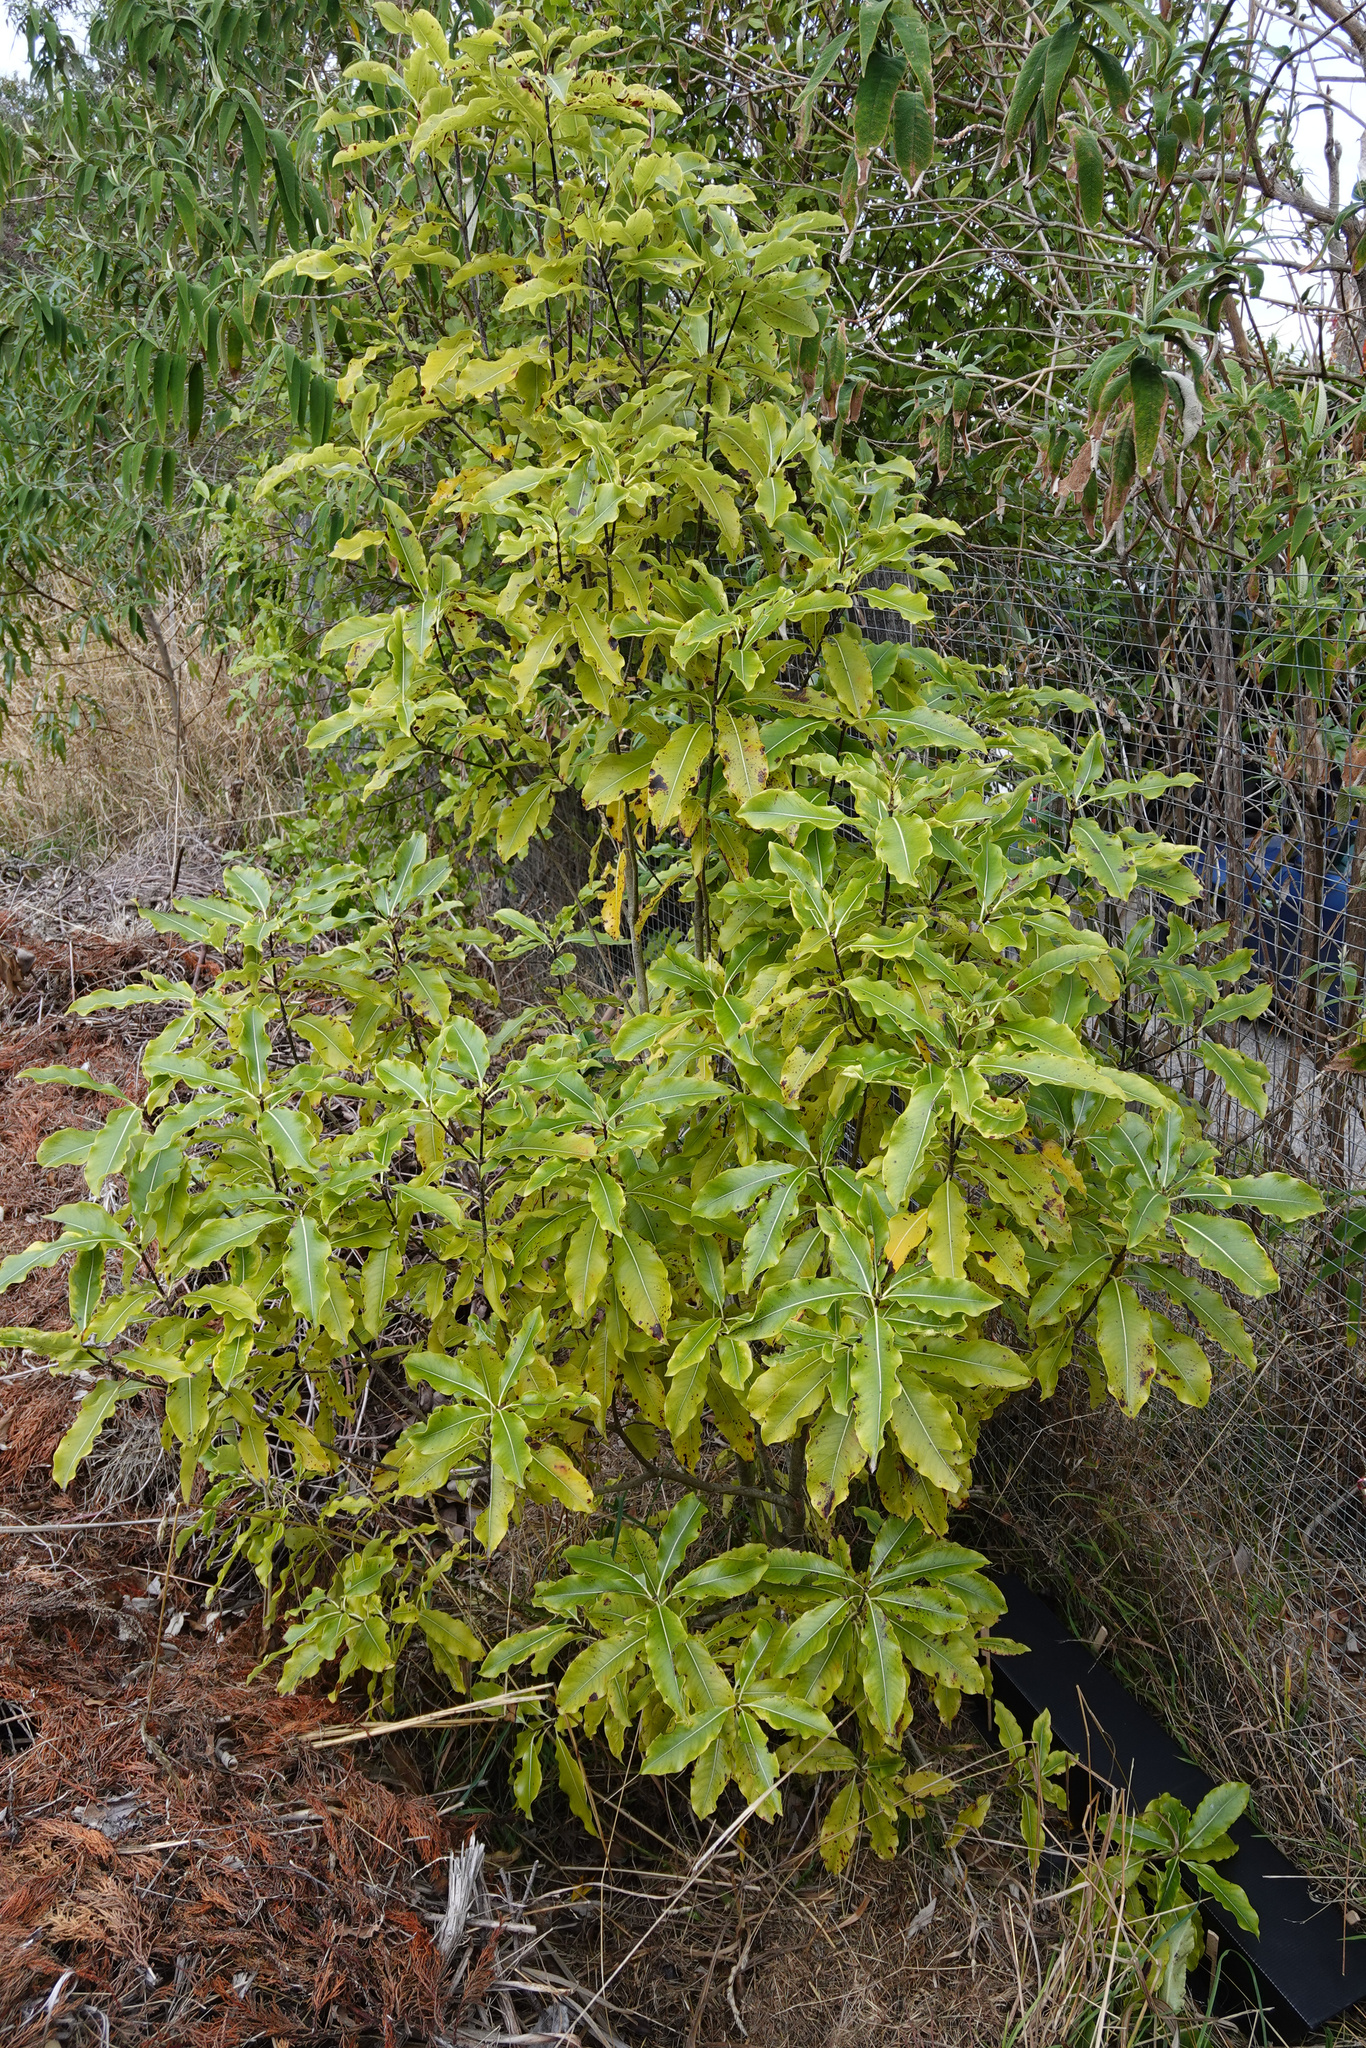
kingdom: Plantae
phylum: Tracheophyta
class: Magnoliopsida
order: Apiales
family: Pittosporaceae
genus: Pittosporum
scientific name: Pittosporum eugenioides
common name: Lemonwood
